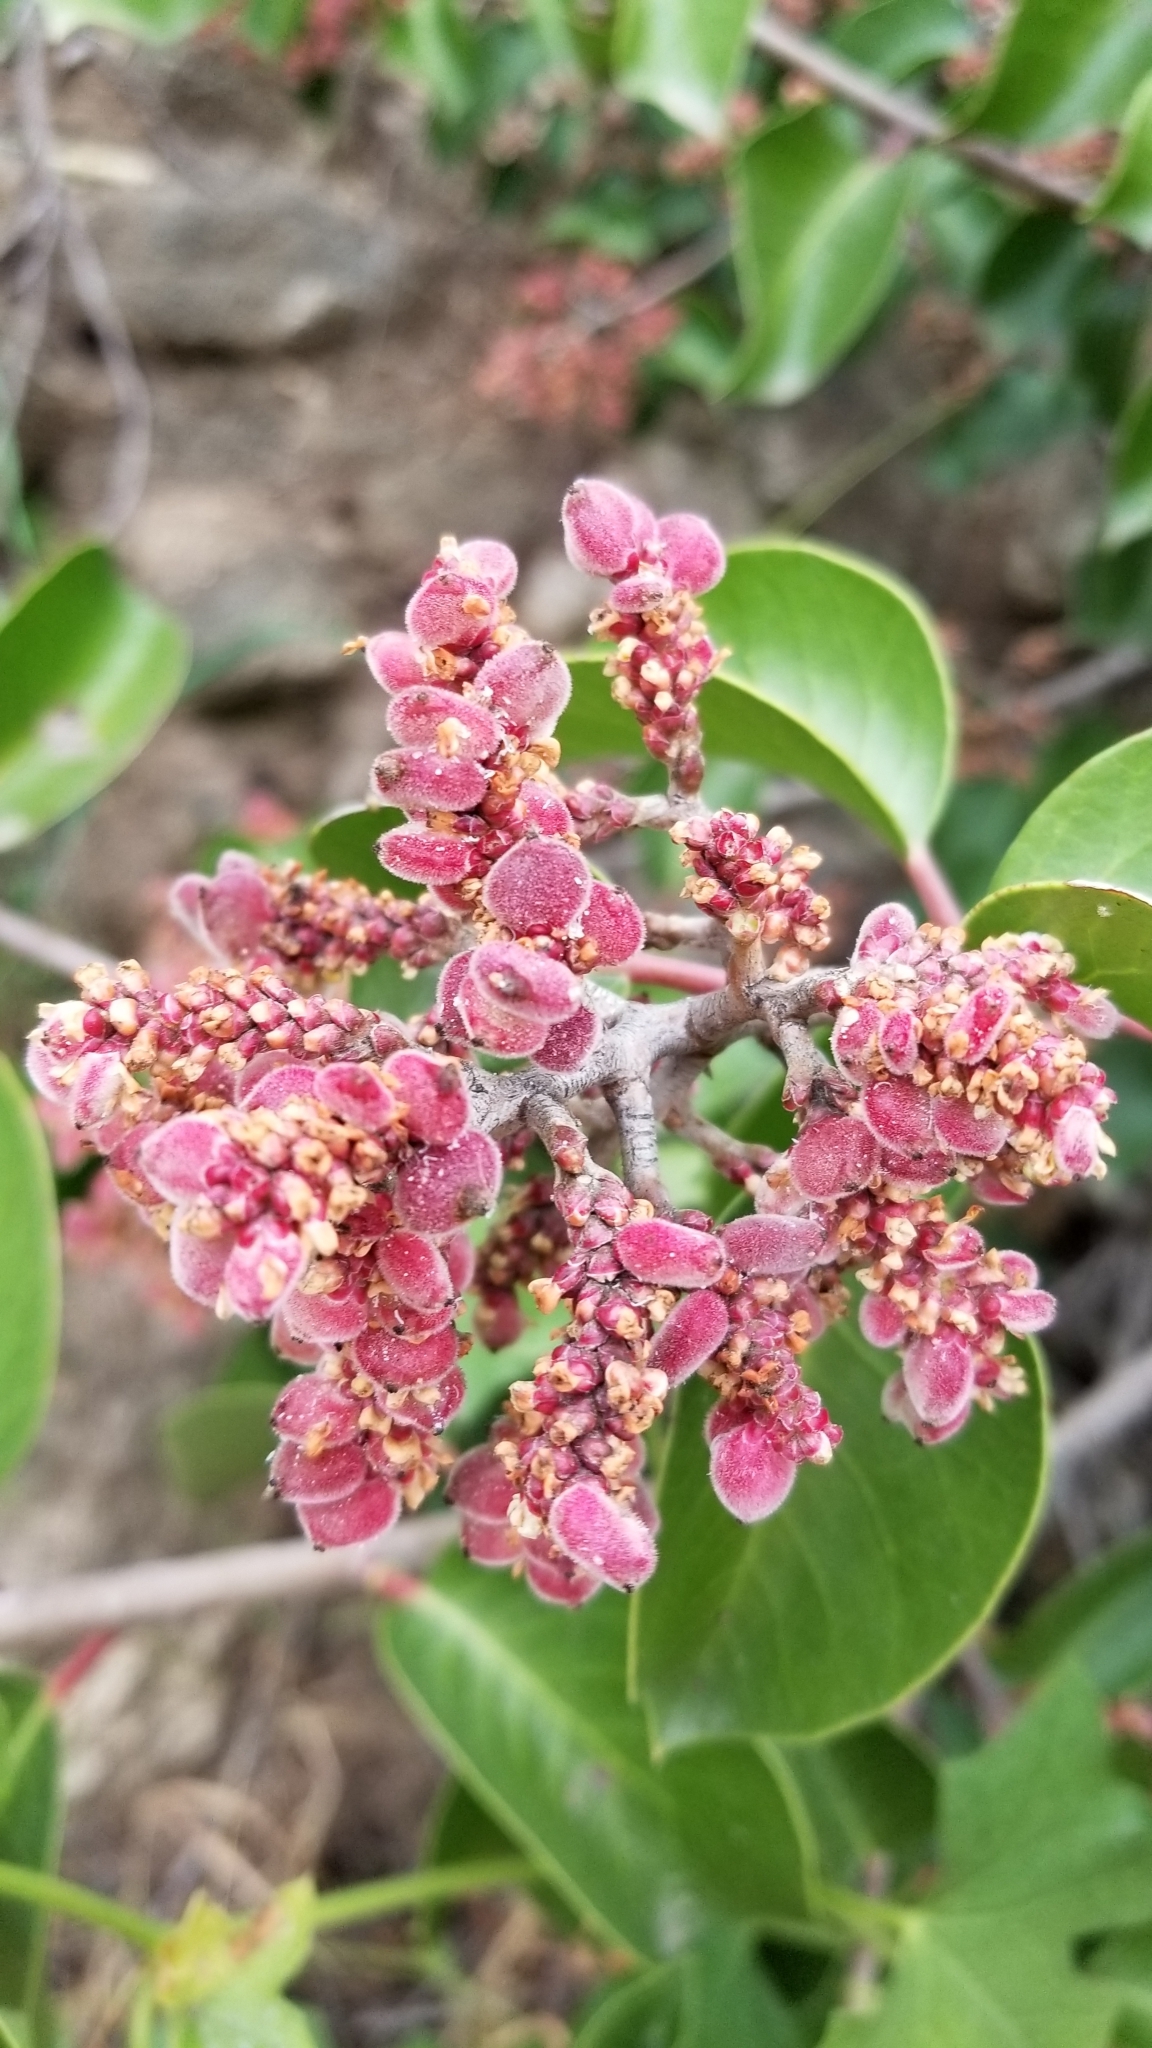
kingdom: Plantae
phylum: Tracheophyta
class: Magnoliopsida
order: Sapindales
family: Anacardiaceae
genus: Rhus
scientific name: Rhus ovata
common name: Sugar sumac
